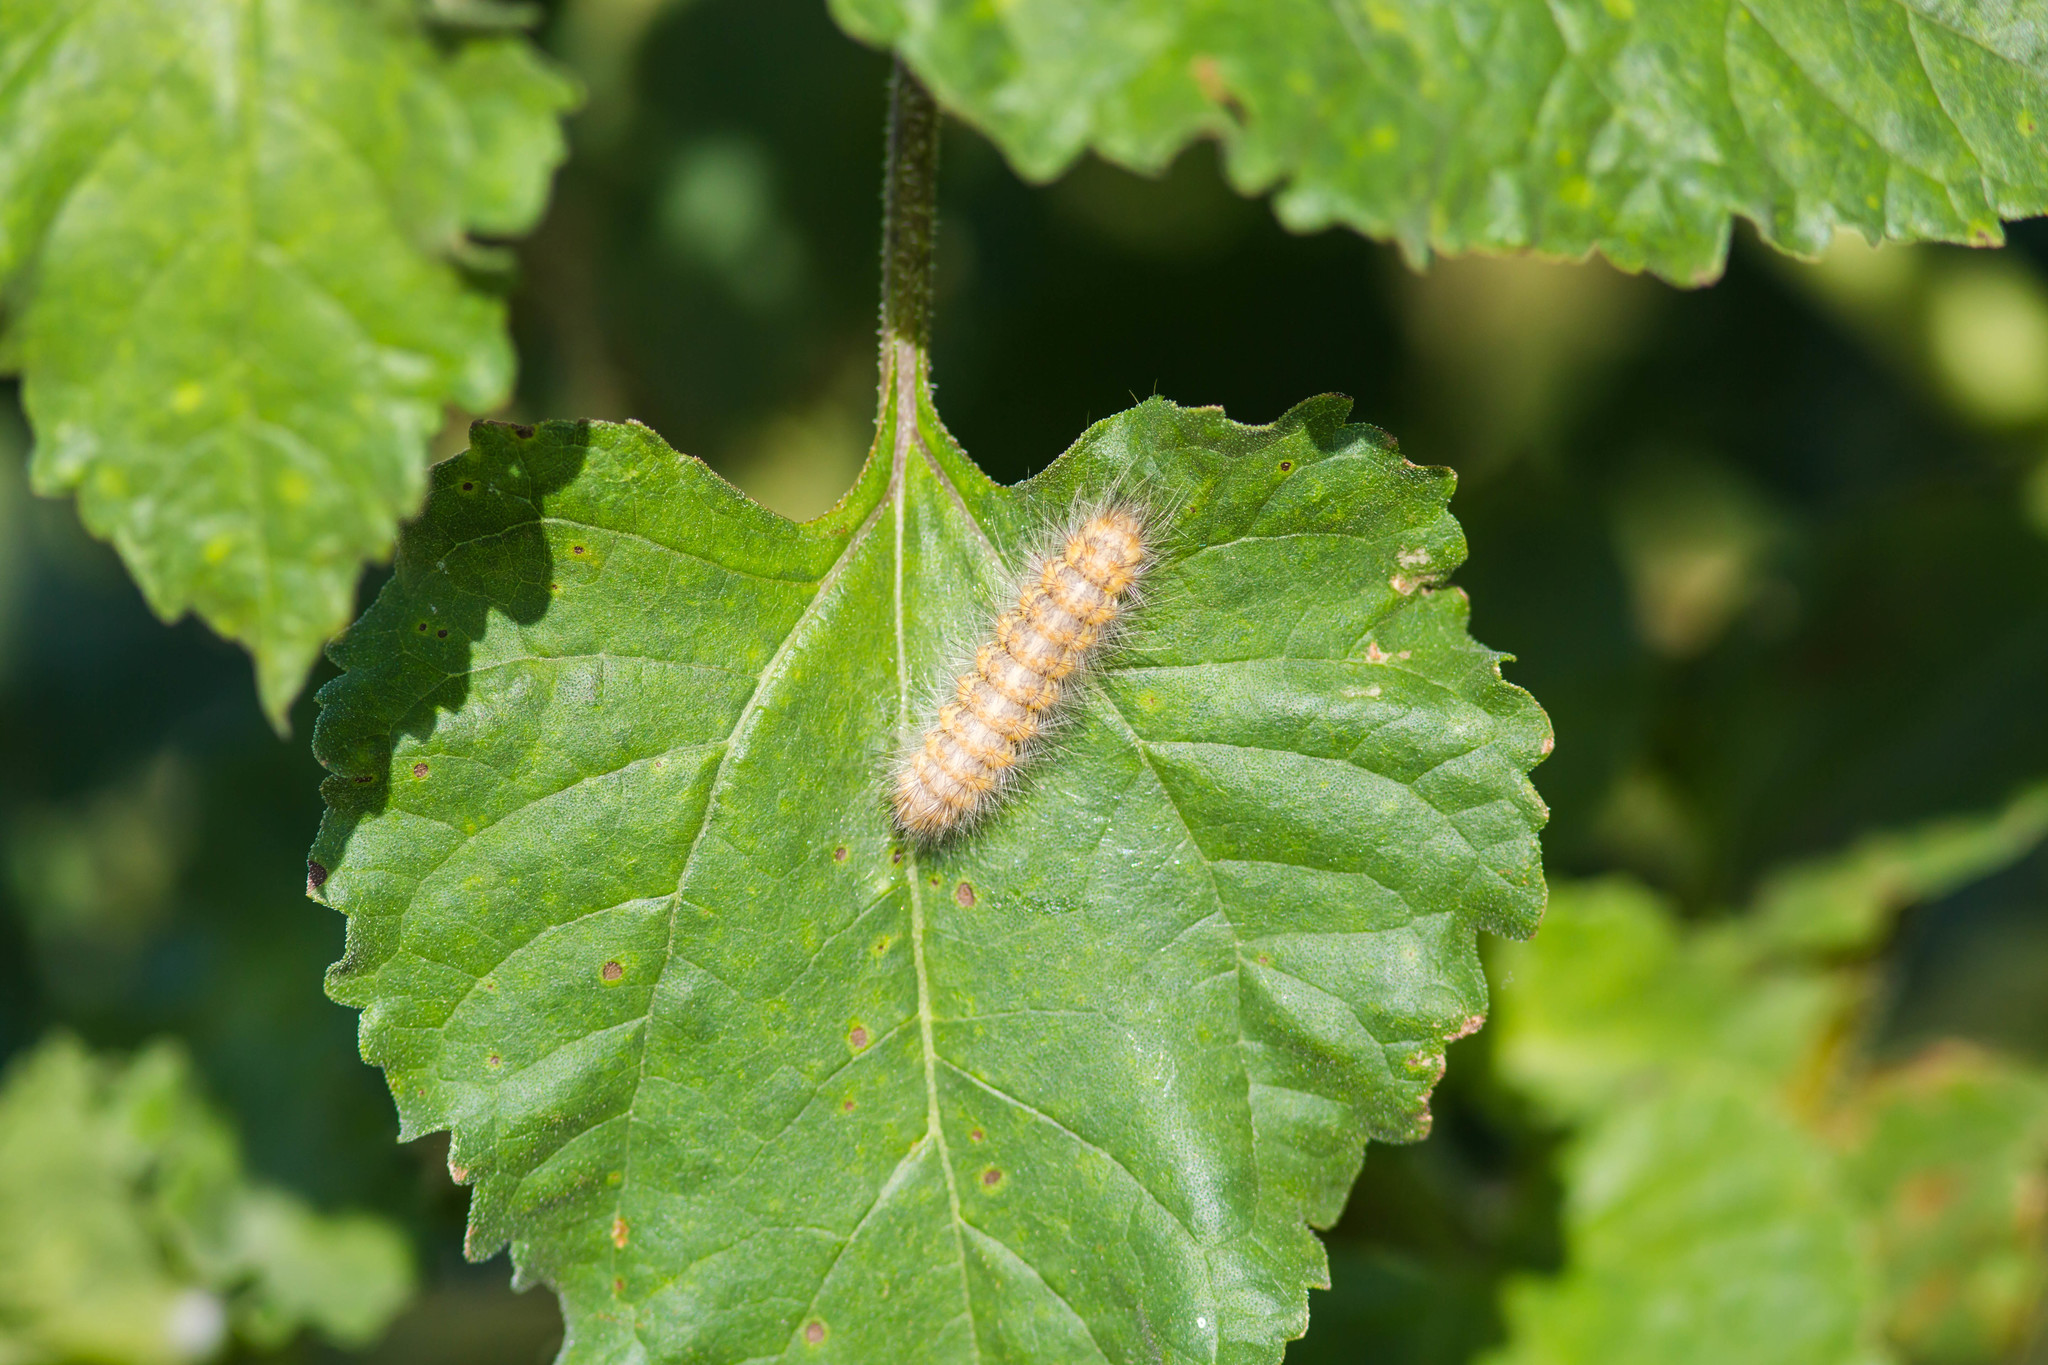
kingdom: Animalia
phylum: Arthropoda
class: Insecta
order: Lepidoptera
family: Erebidae
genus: Estigmene
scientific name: Estigmene acrea
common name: Salt marsh moth
